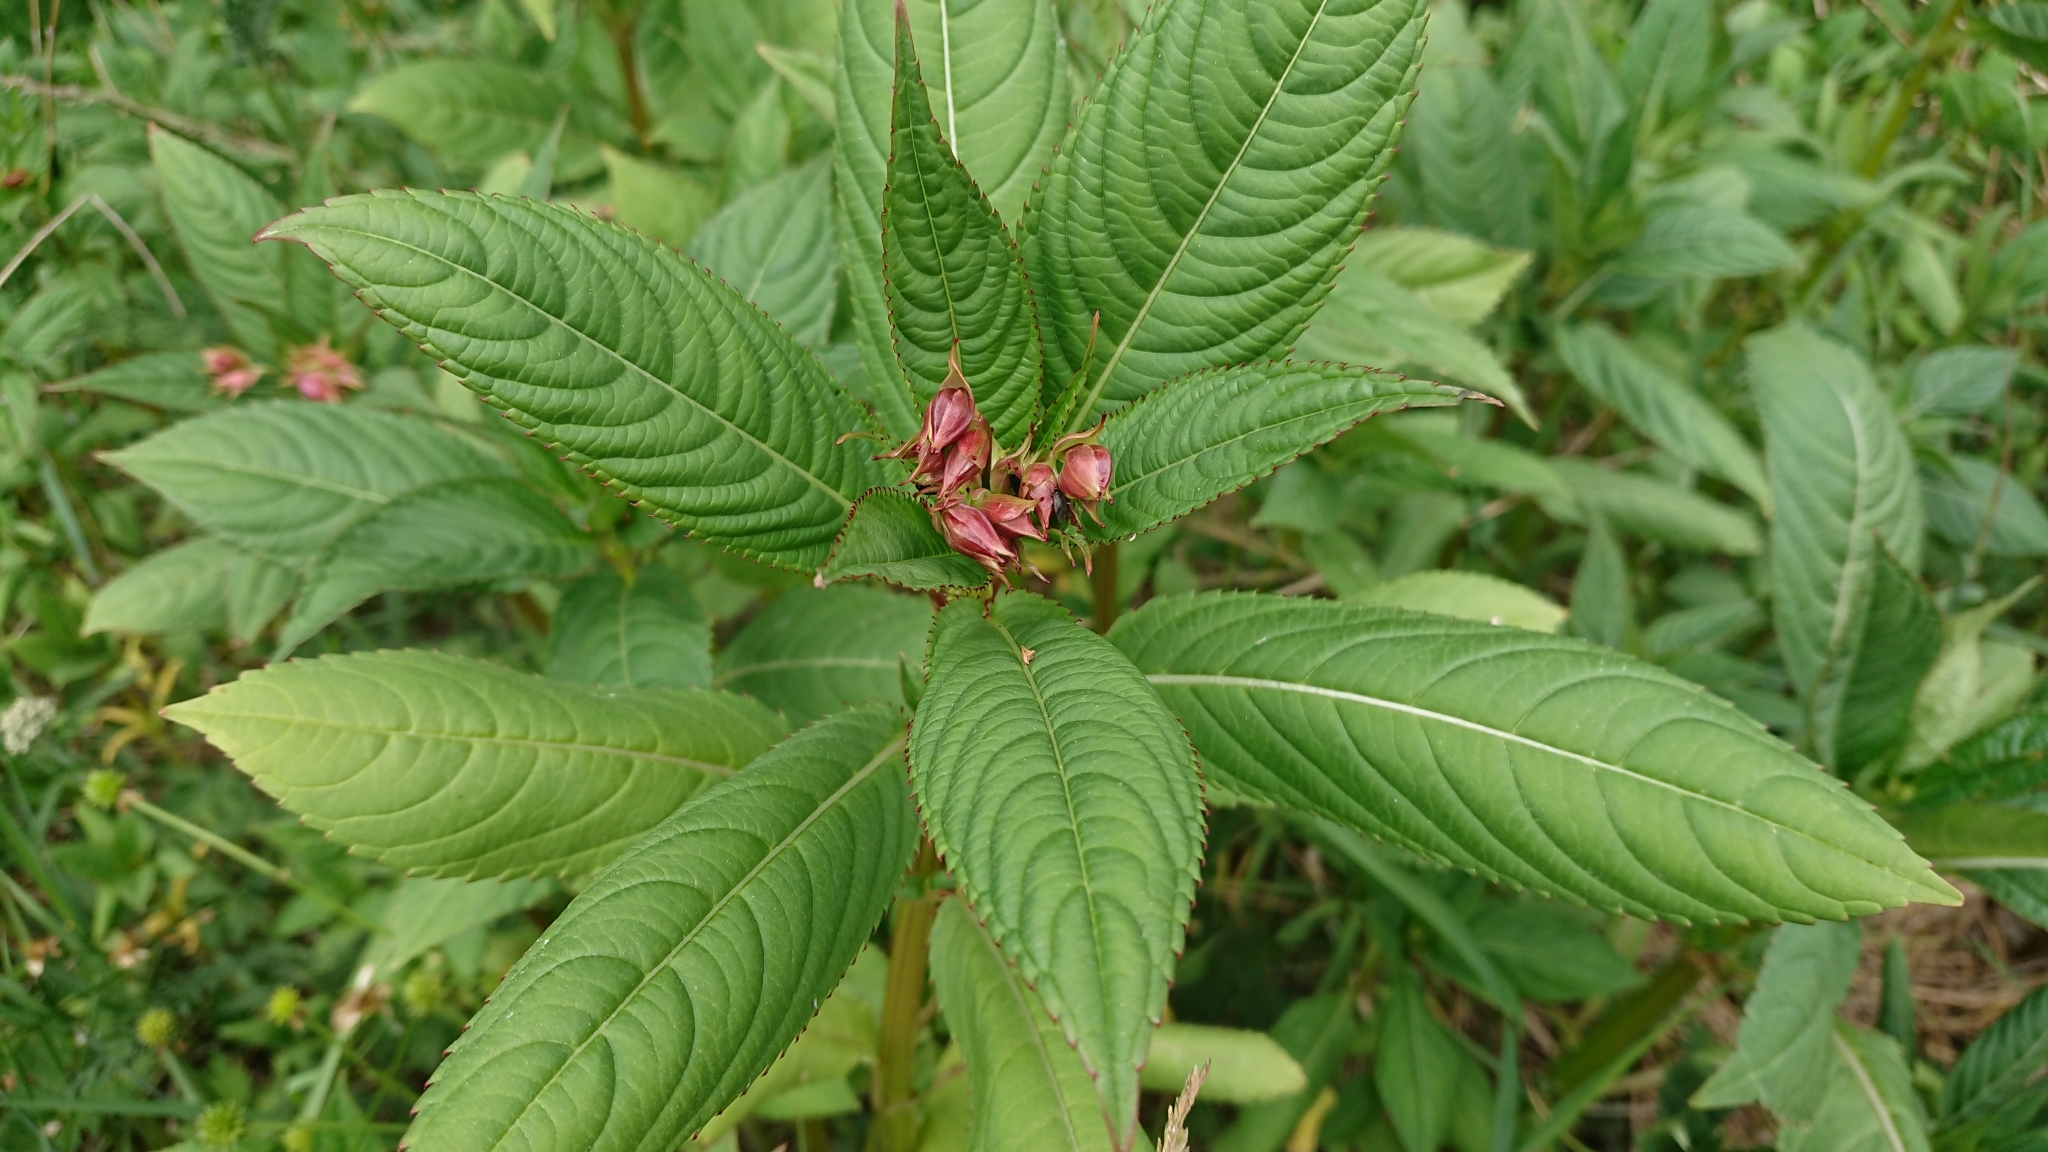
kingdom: Plantae
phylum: Tracheophyta
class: Magnoliopsida
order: Ericales
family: Balsaminaceae
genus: Impatiens
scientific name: Impatiens glandulifera
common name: Himalayan balsam
